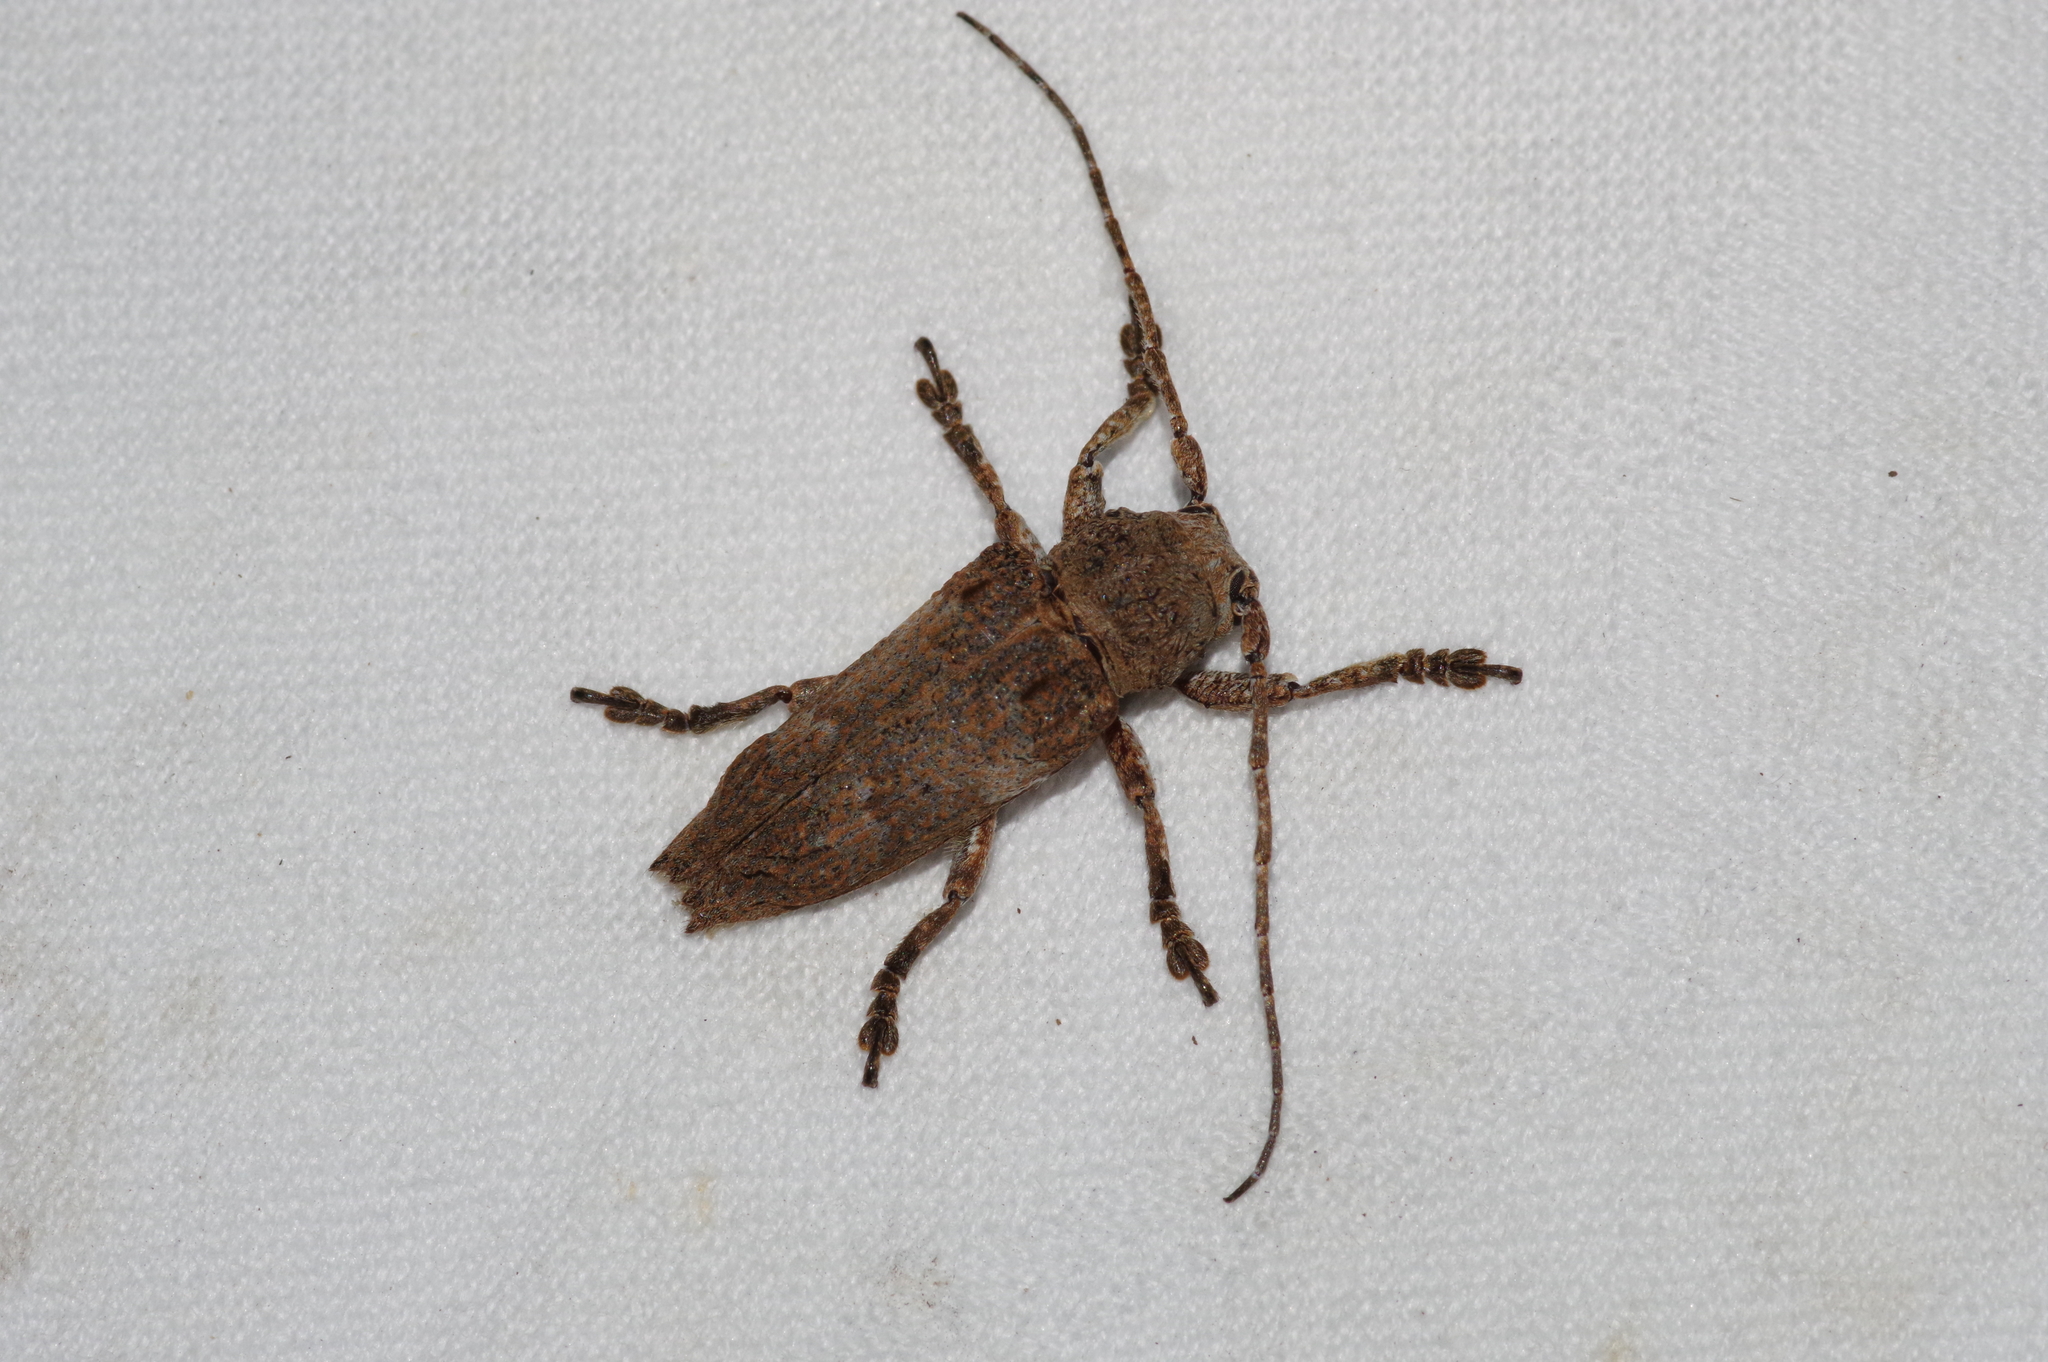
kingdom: Animalia
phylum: Arthropoda
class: Insecta
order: Coleoptera
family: Cerambycidae
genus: Niphona
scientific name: Niphona yanoi
